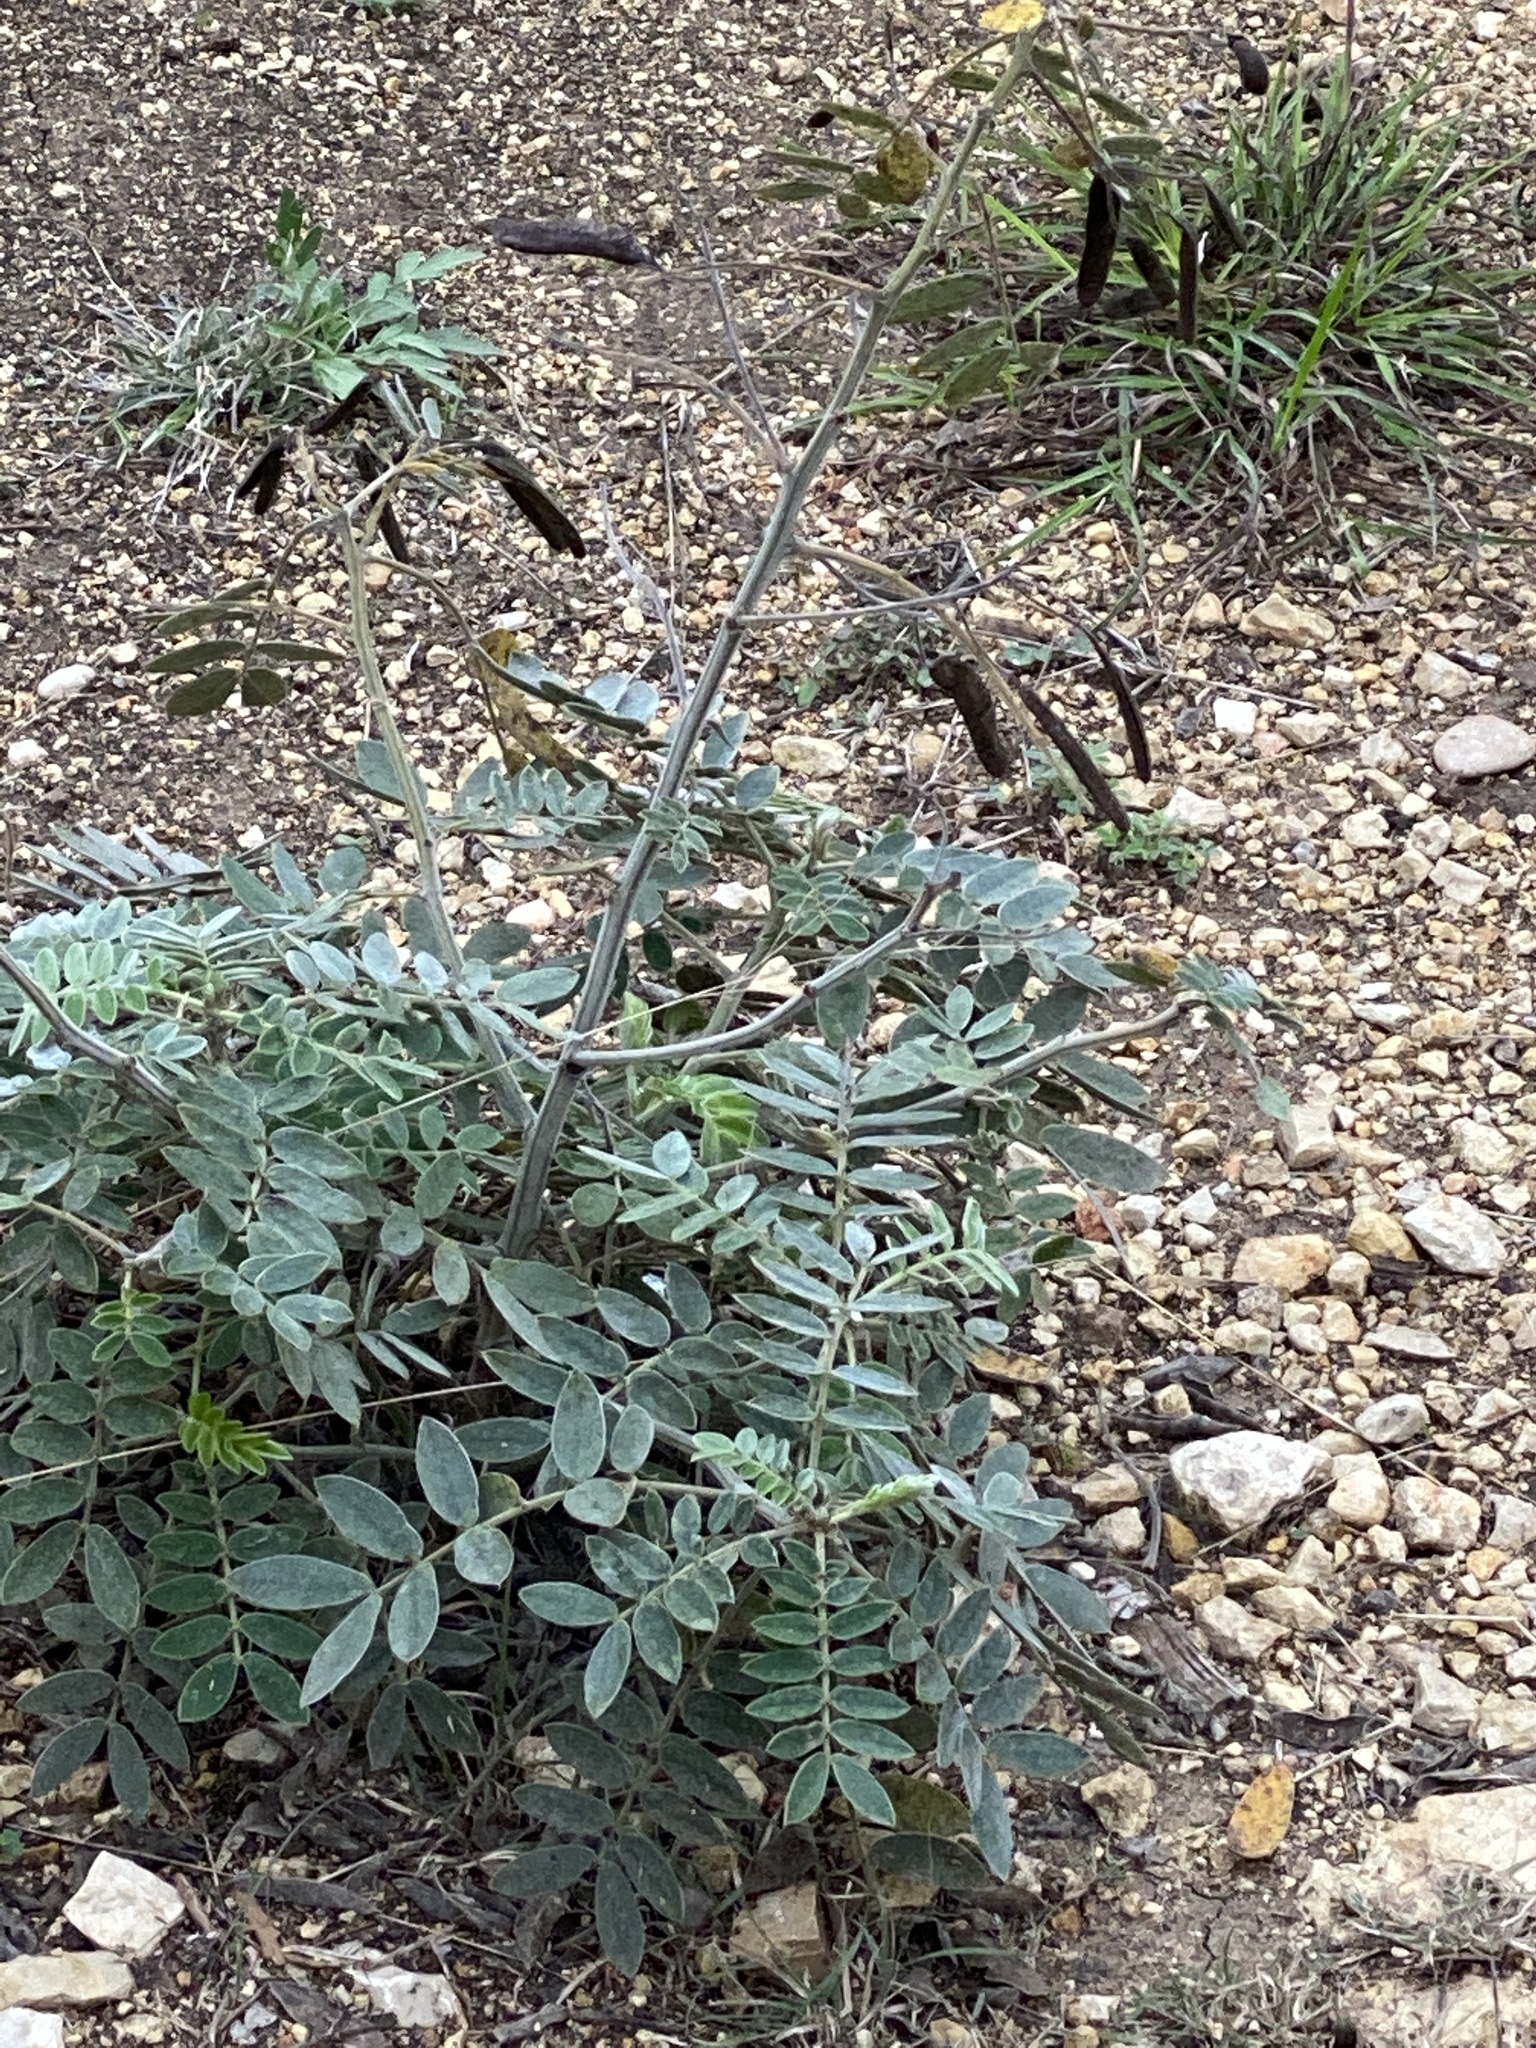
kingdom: Plantae
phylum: Tracheophyta
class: Magnoliopsida
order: Fabales
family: Fabaceae
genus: Senna
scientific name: Senna lindheimeriana
